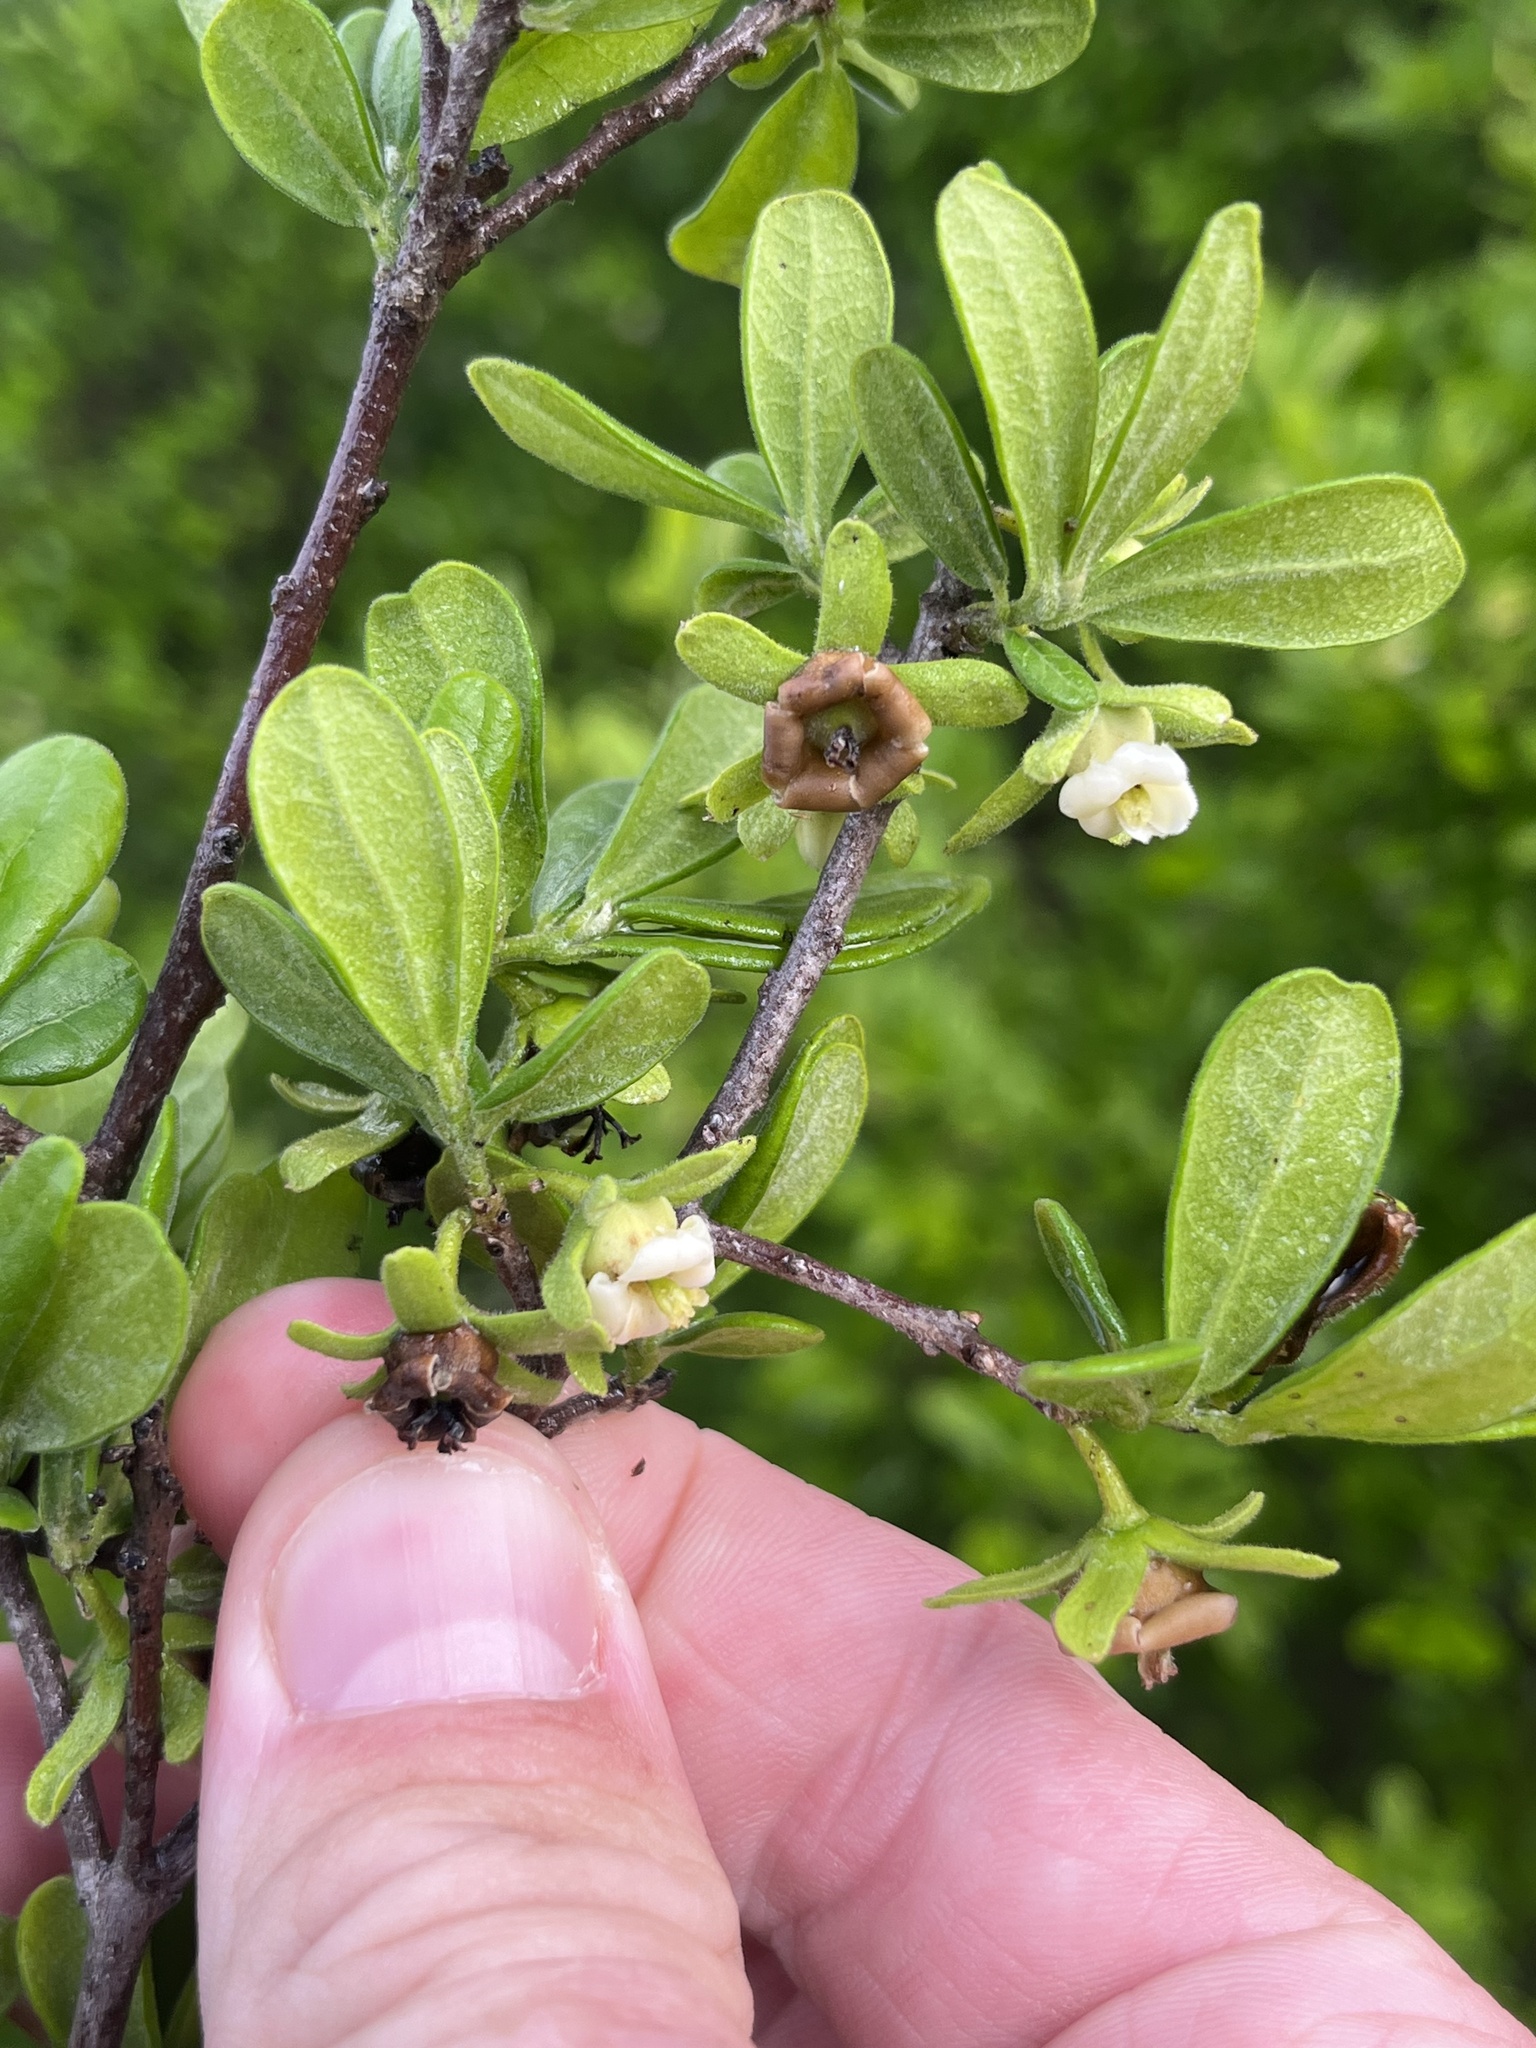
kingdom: Plantae
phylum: Tracheophyta
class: Magnoliopsida
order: Ericales
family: Ebenaceae
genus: Diospyros
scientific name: Diospyros texana
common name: Texas persimmon
